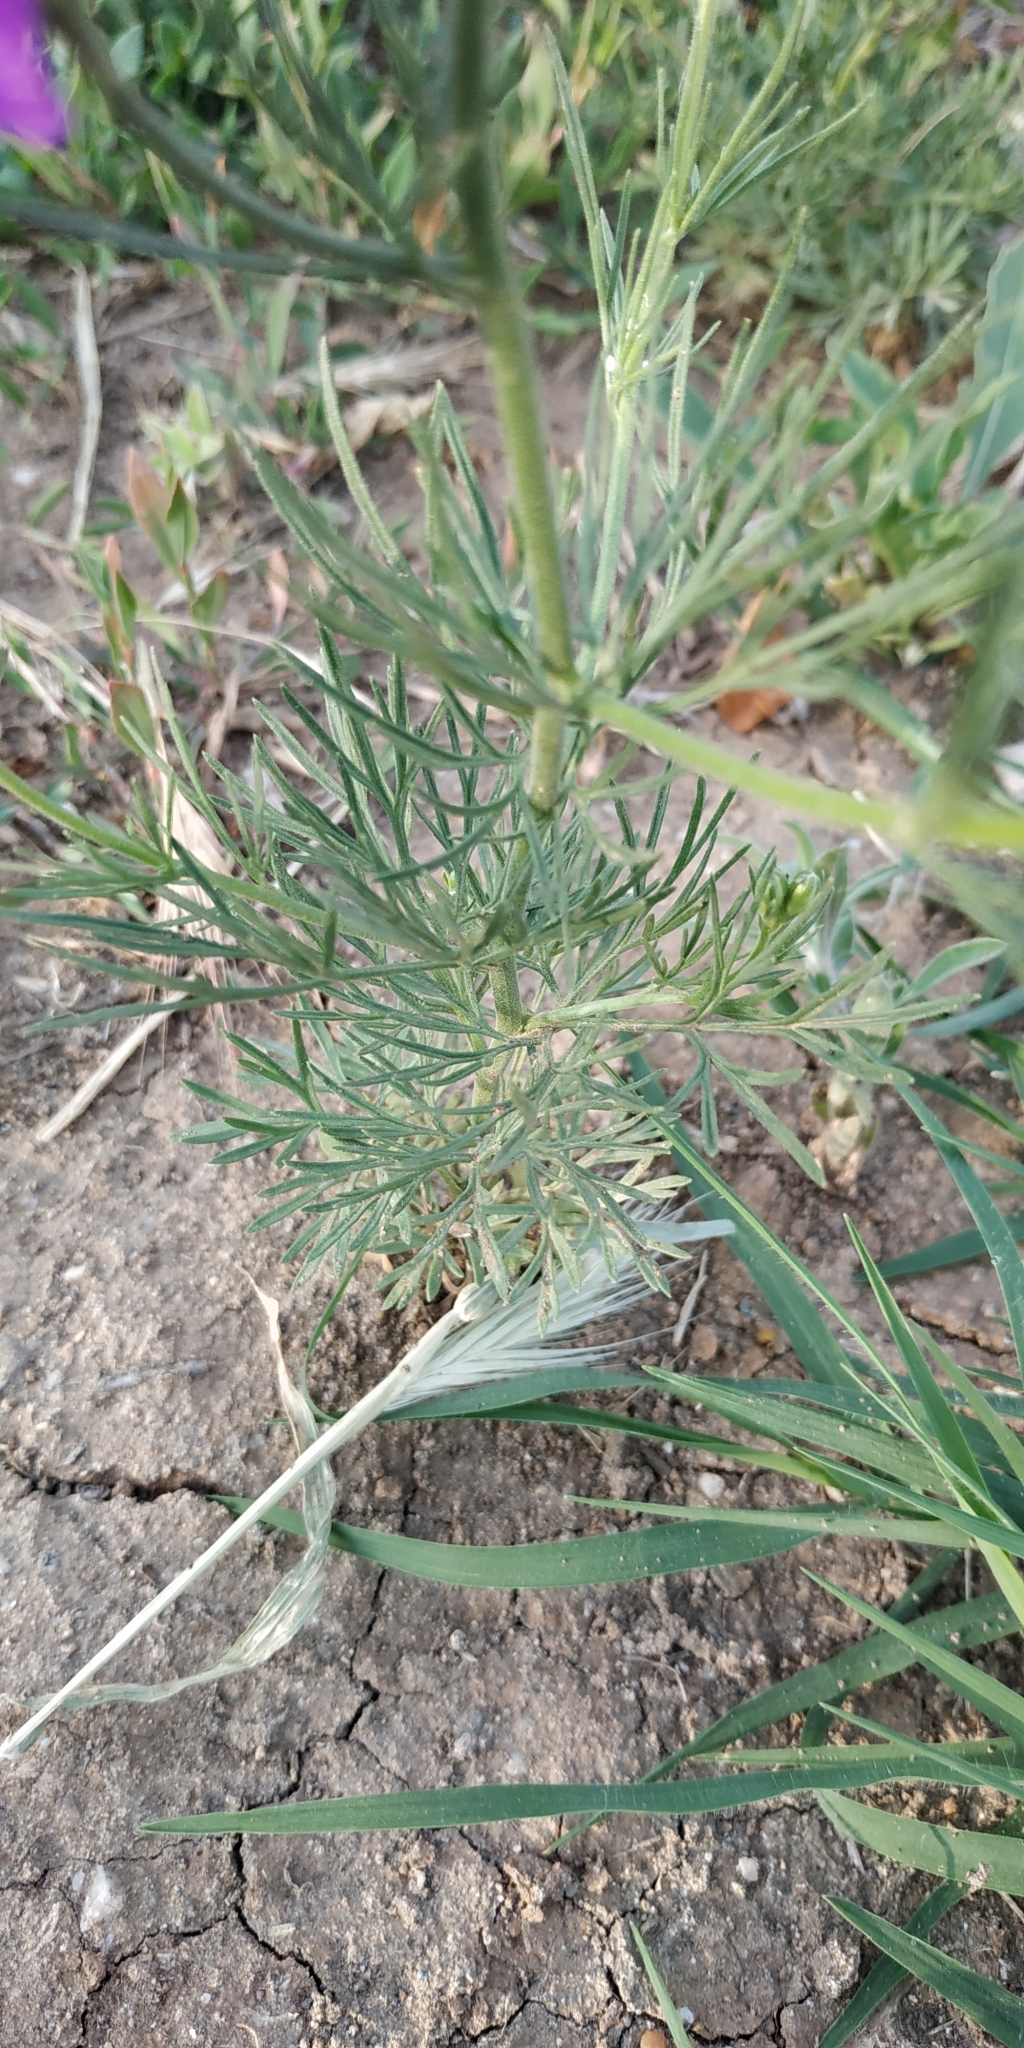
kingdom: Plantae
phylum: Tracheophyta
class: Magnoliopsida
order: Ranunculales
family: Ranunculaceae
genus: Delphinium
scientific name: Delphinium ajacis
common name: Doubtful knight's-spur
